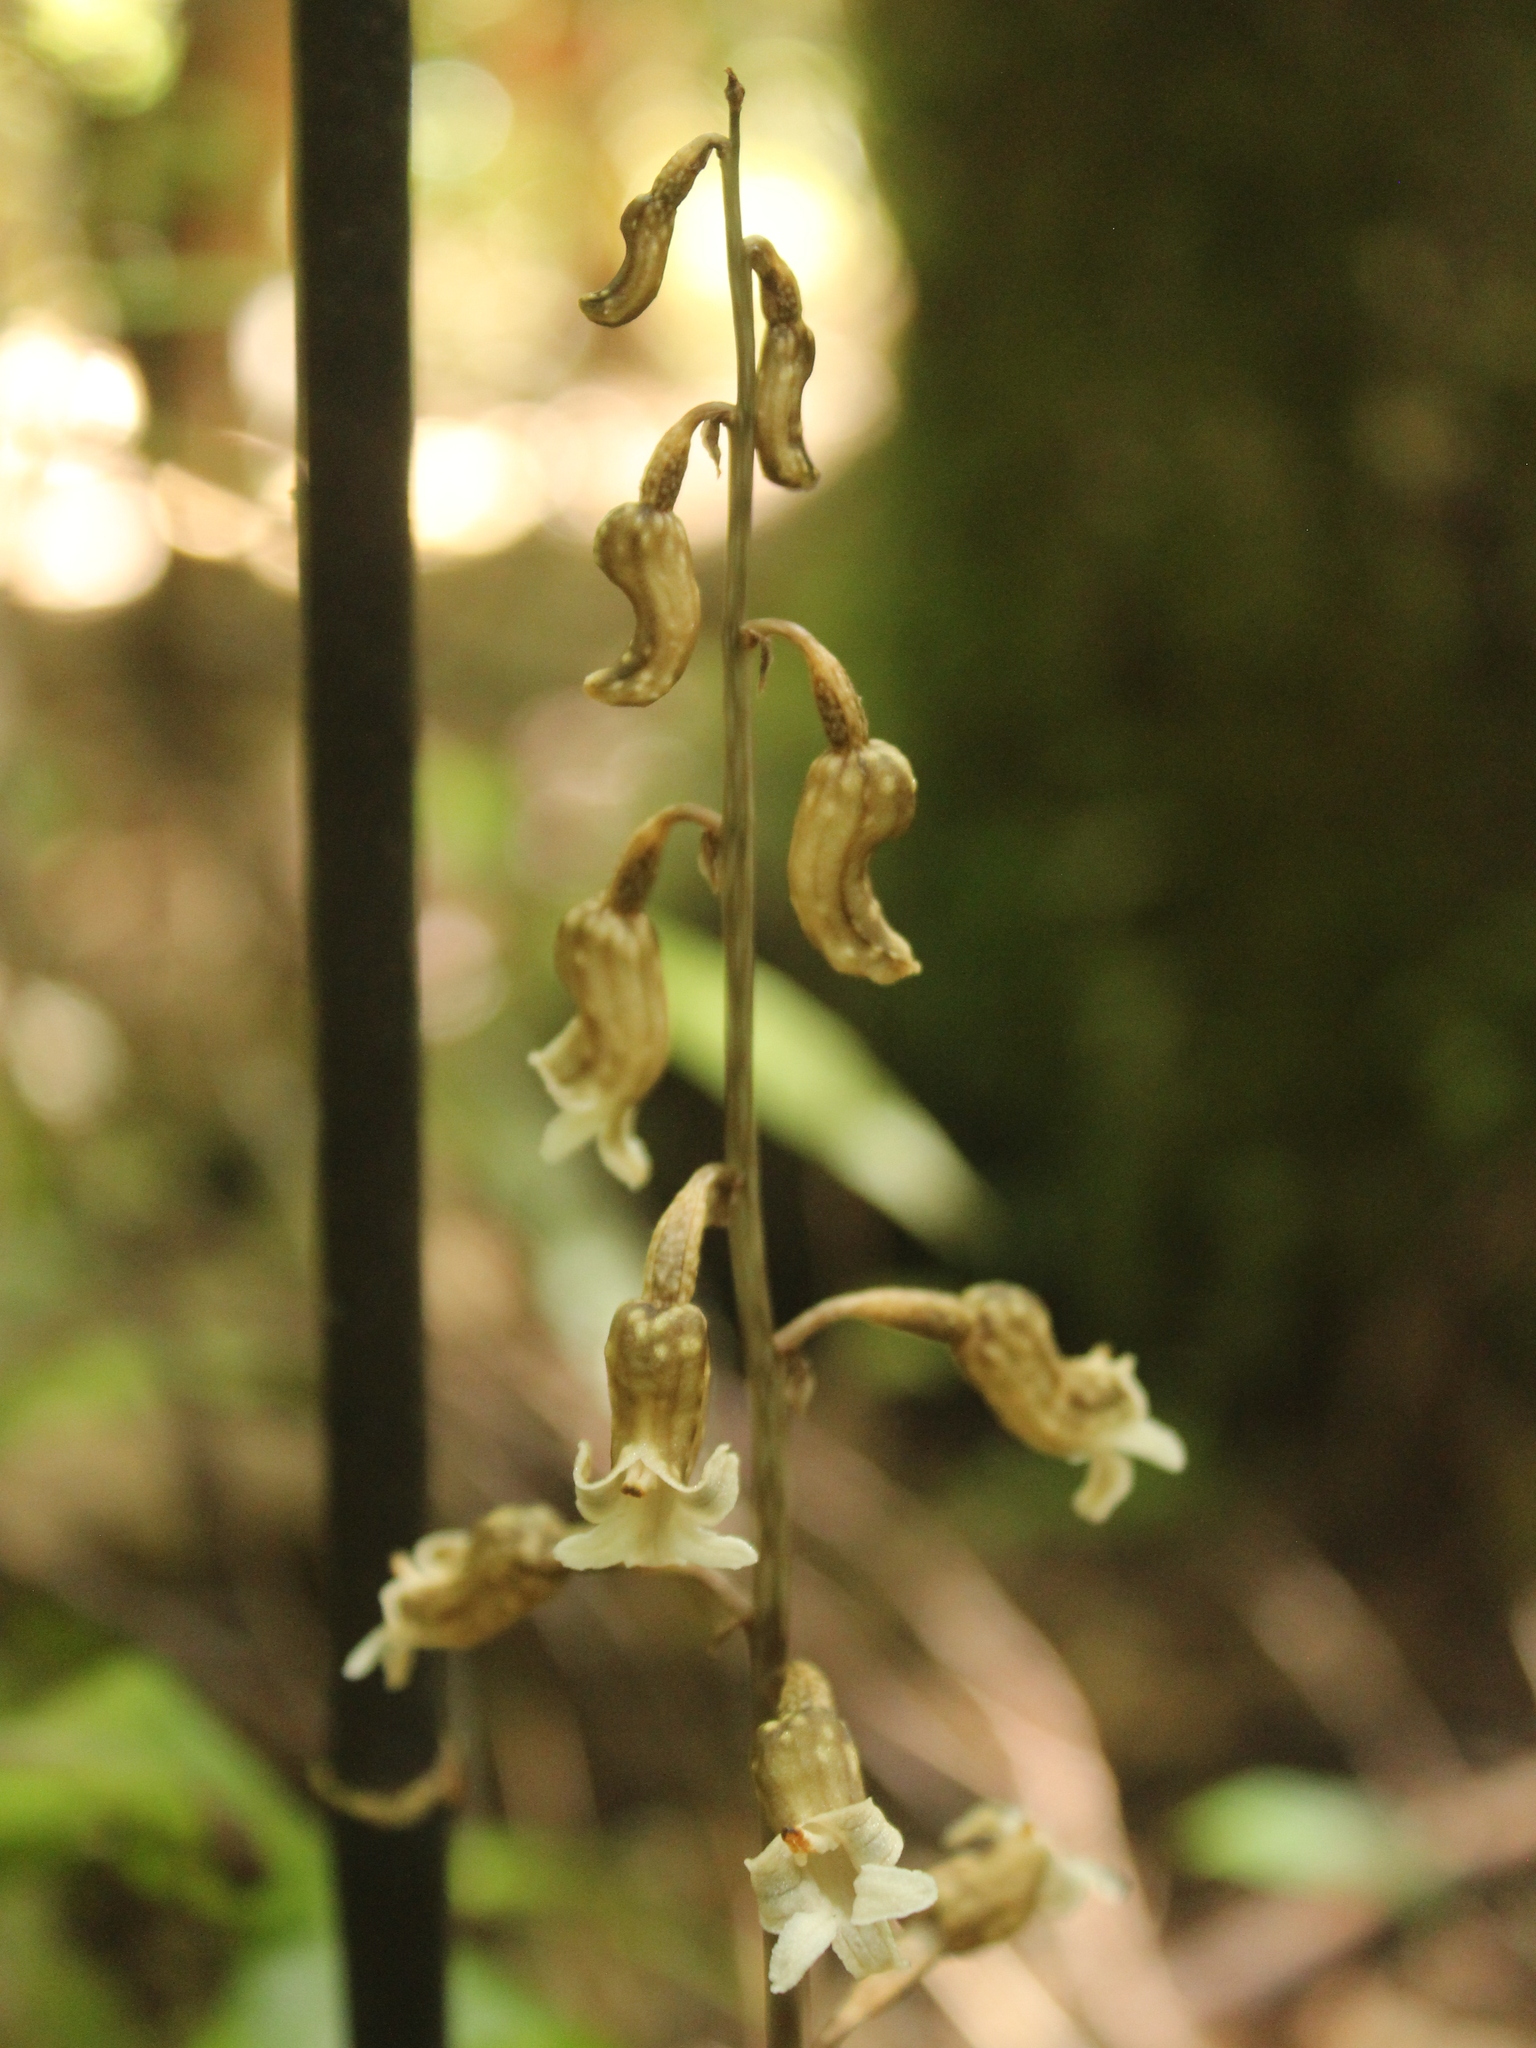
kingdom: Plantae
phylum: Tracheophyta
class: Liliopsida
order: Asparagales
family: Orchidaceae
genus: Gastrodia
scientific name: Gastrodia cunninghamii
